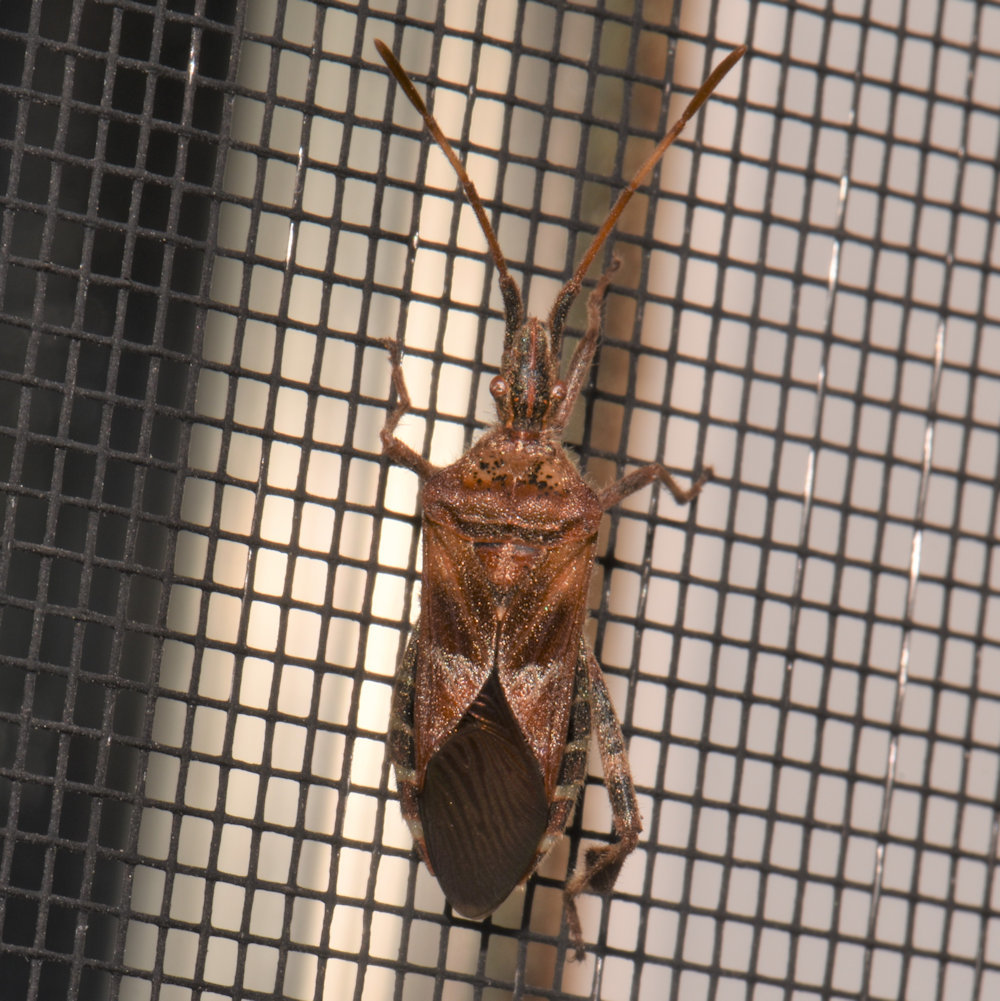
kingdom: Animalia
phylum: Arthropoda
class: Insecta
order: Hemiptera
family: Coreidae
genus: Leptoglossus
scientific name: Leptoglossus occidentalis
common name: Western conifer-seed bug
